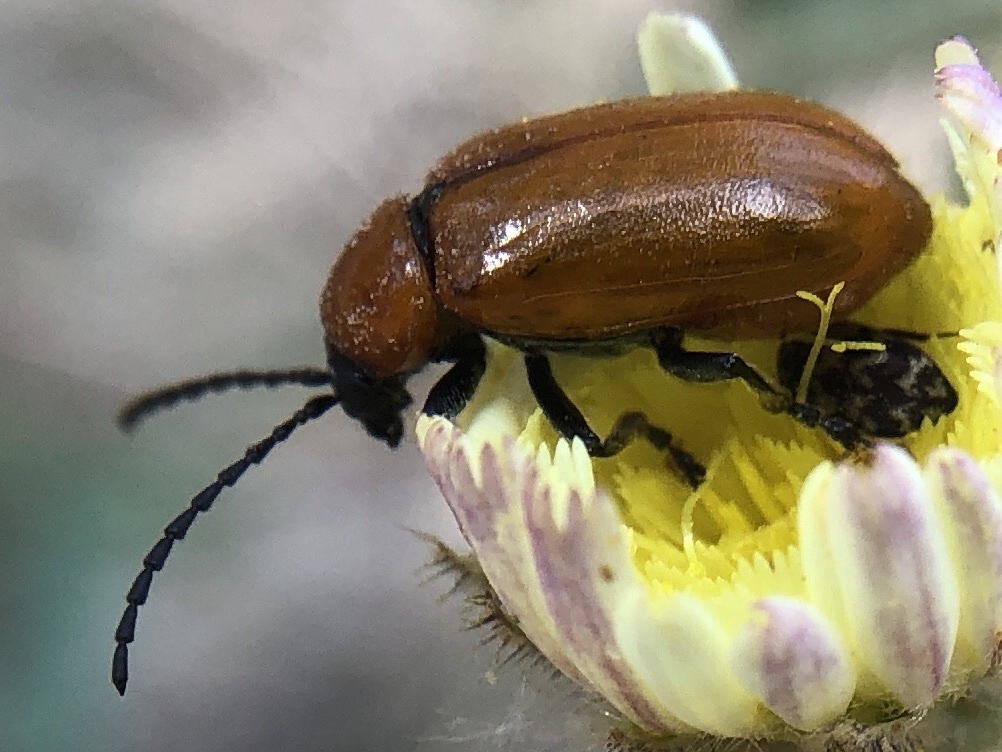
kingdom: Animalia
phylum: Arthropoda
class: Insecta
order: Coleoptera
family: Chrysomelidae
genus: Exosoma
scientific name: Exosoma lusitanicum
